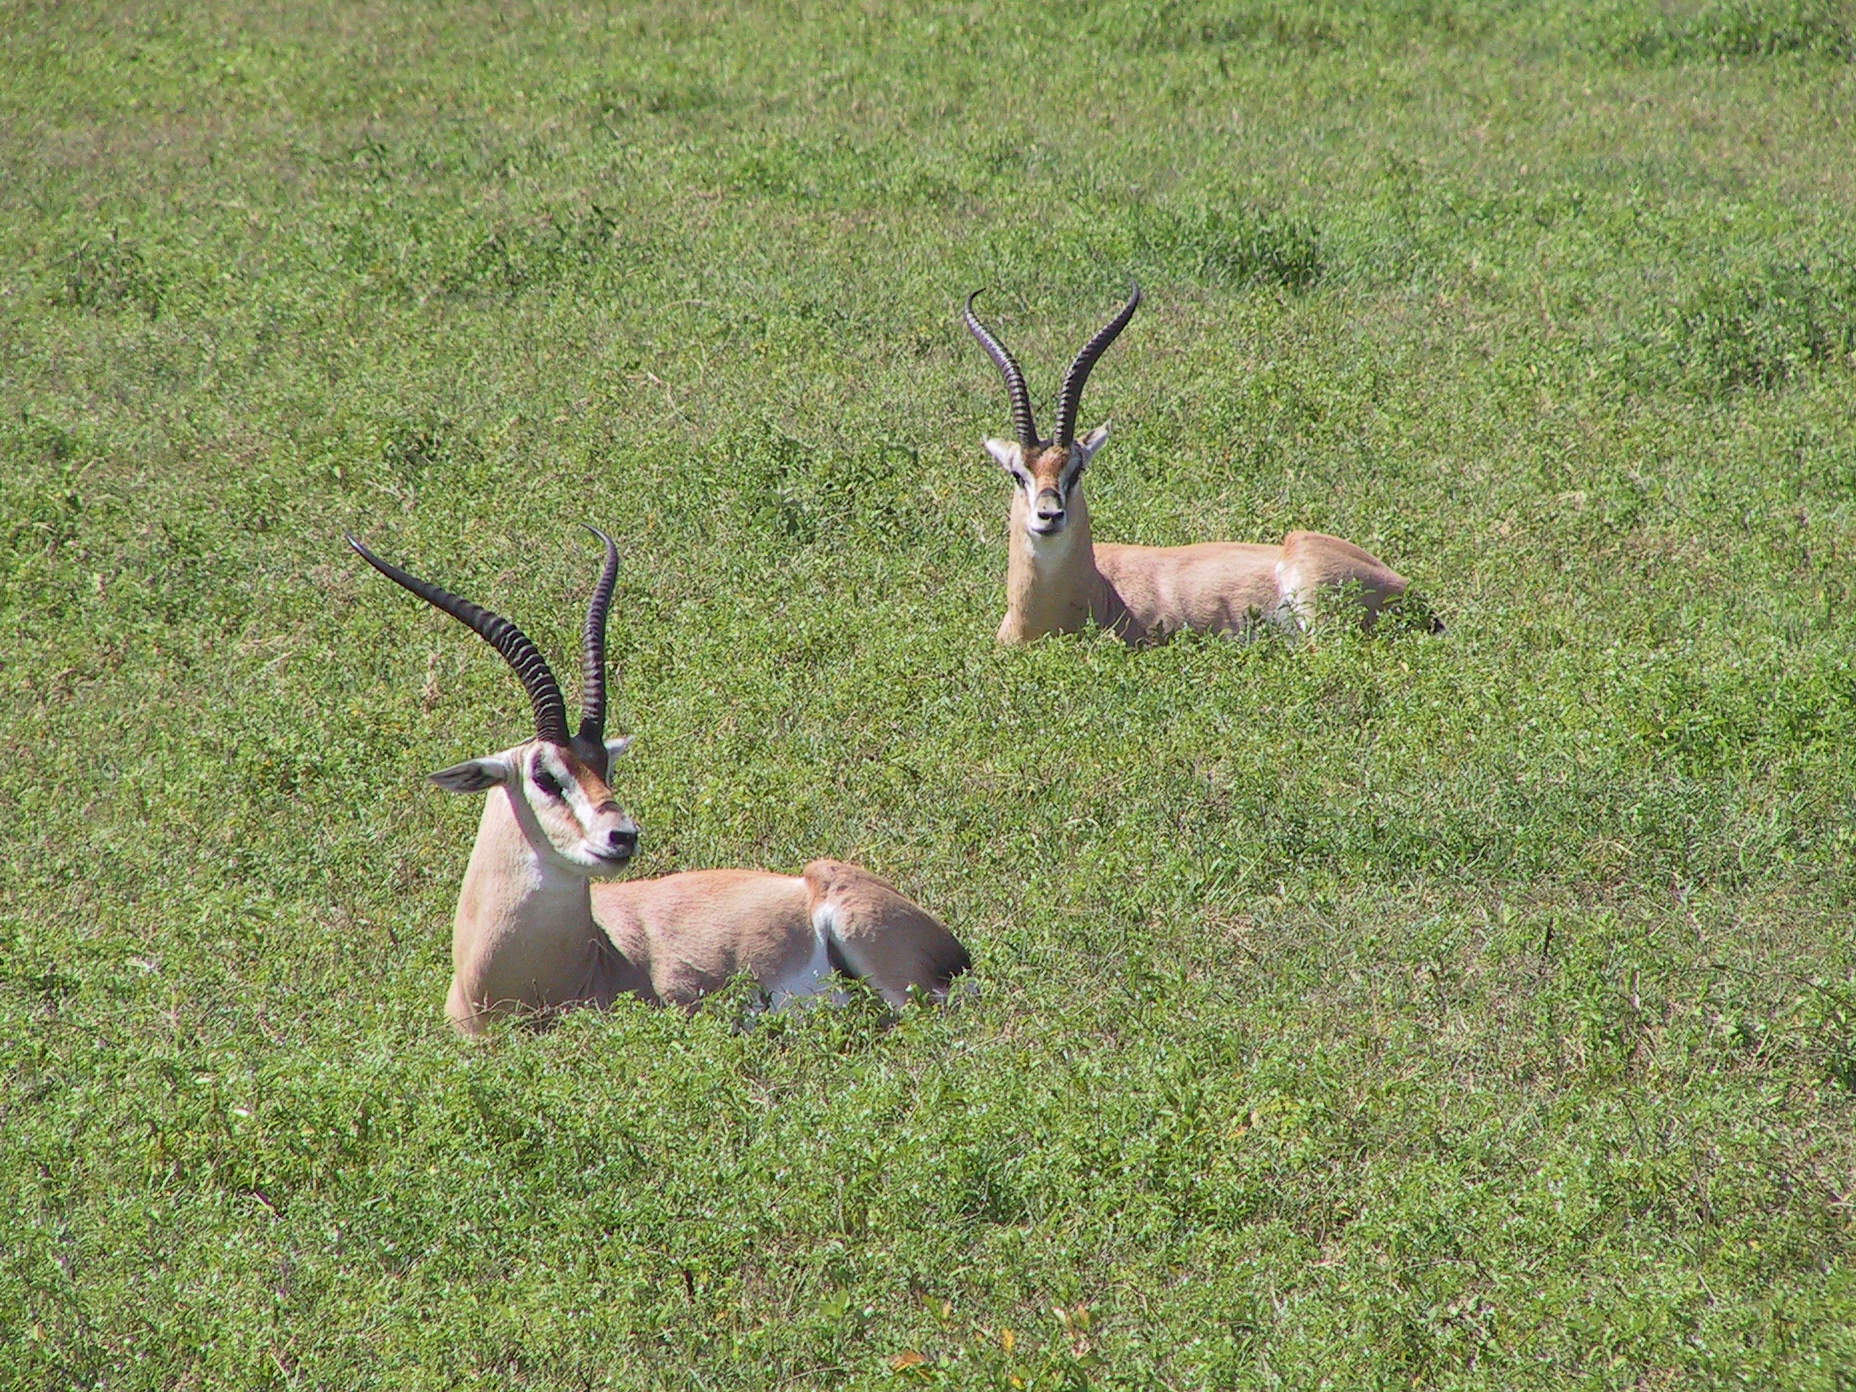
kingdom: Animalia
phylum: Chordata
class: Mammalia
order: Artiodactyla
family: Bovidae
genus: Nanger
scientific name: Nanger granti
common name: Grant's gazelle
